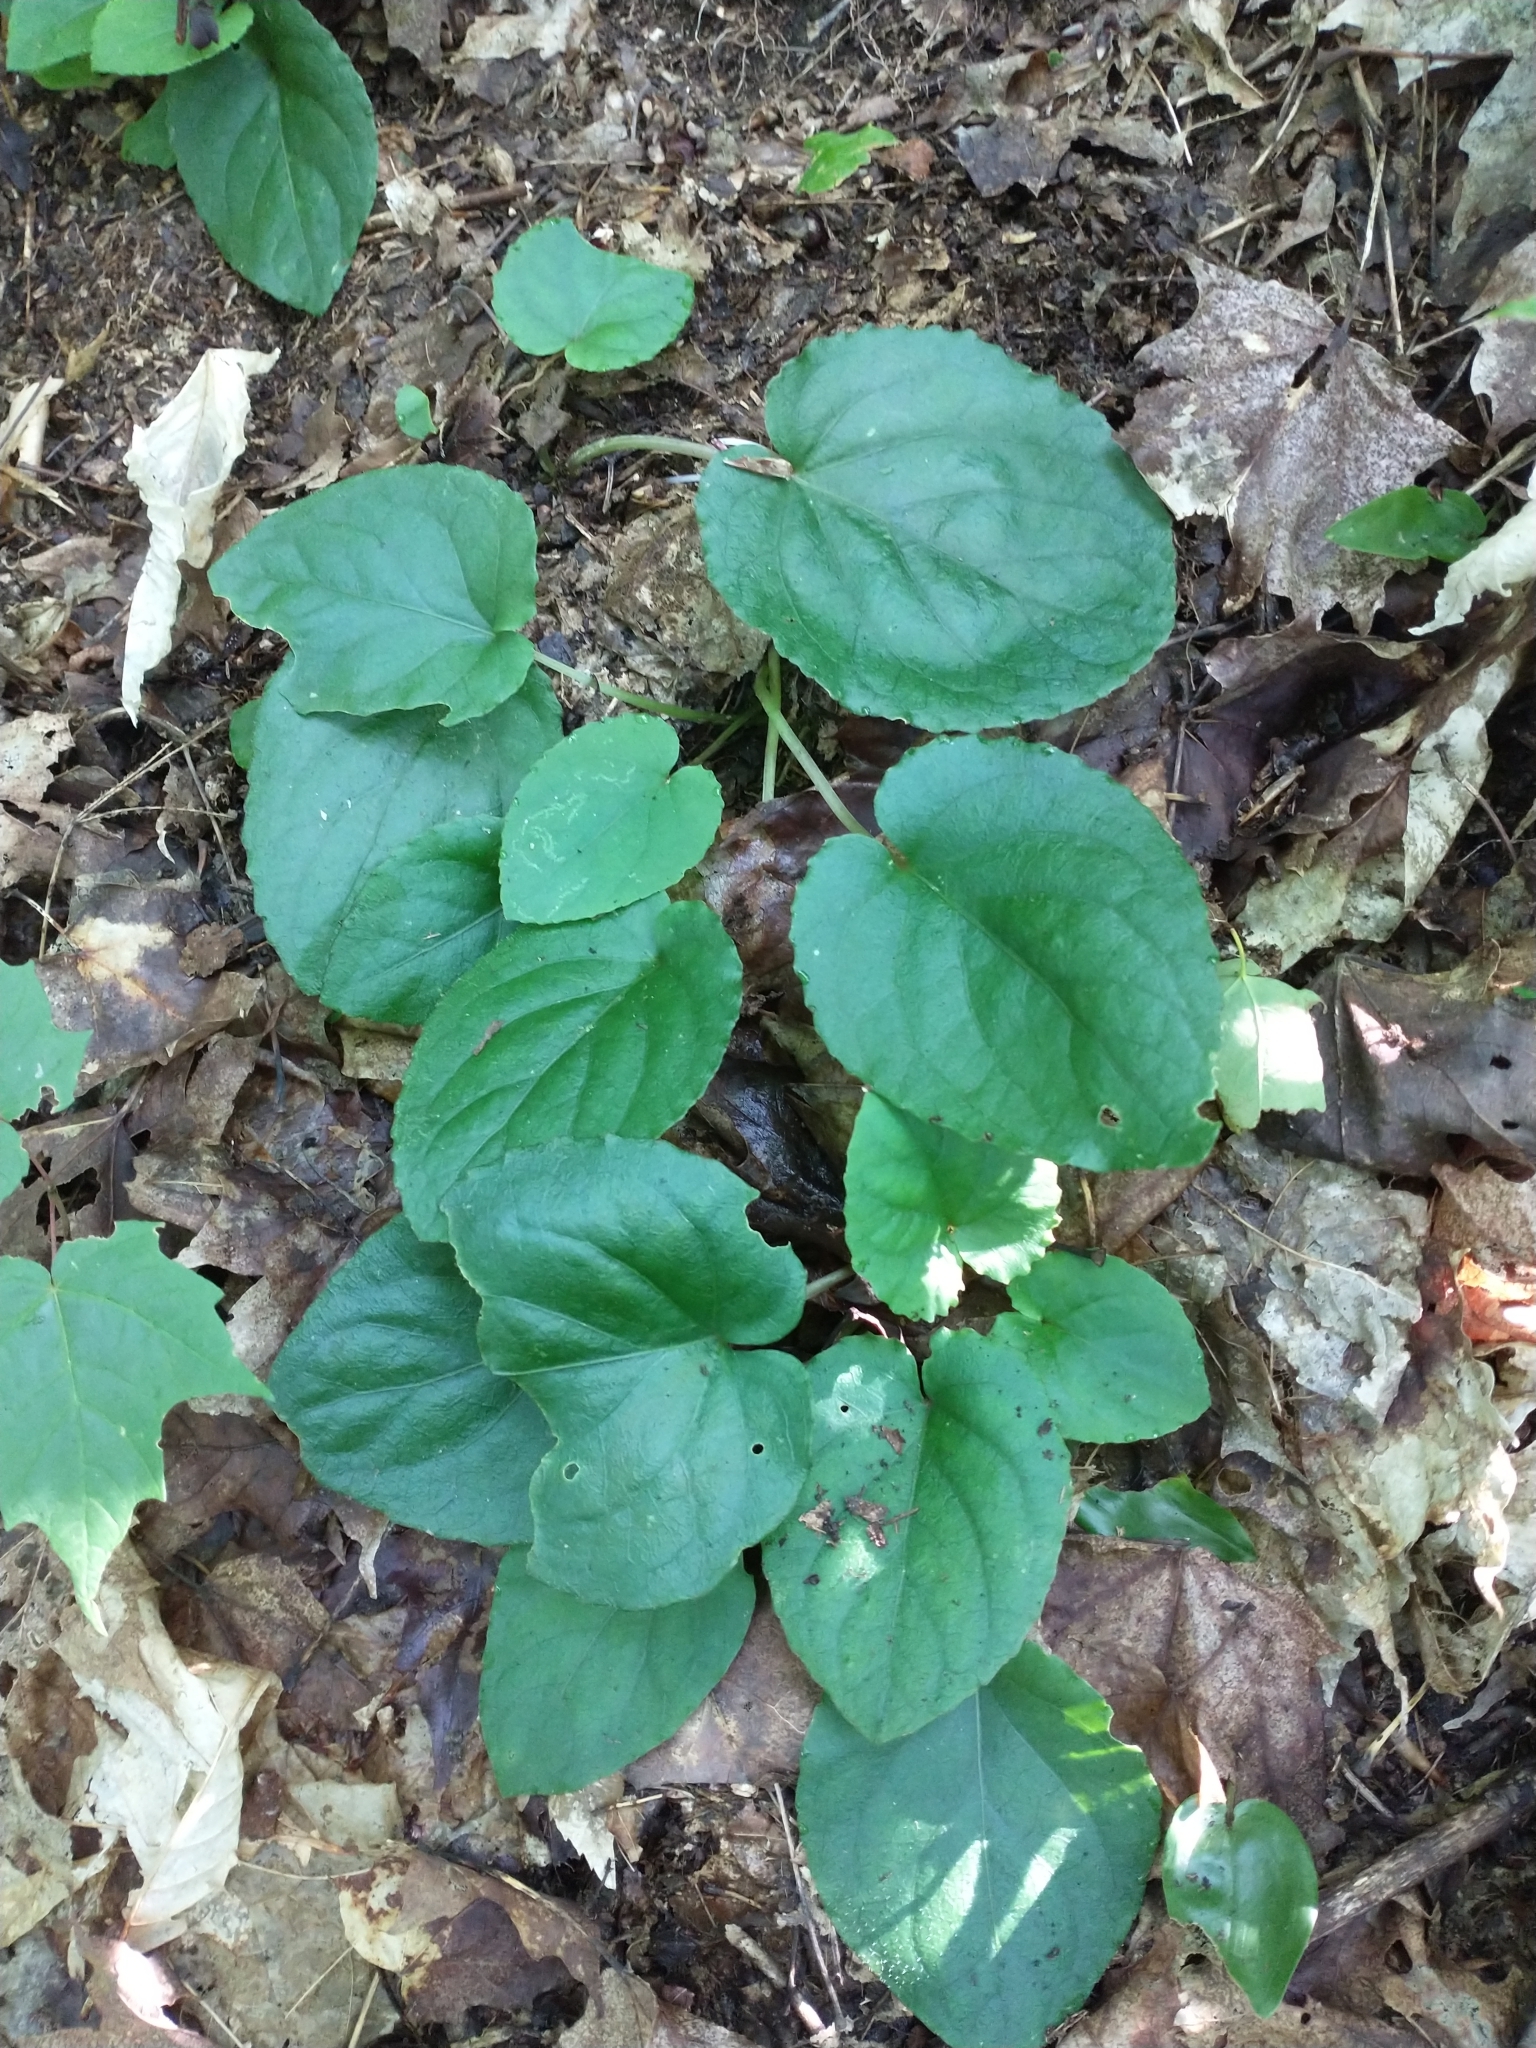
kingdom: Plantae
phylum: Tracheophyta
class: Magnoliopsida
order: Malpighiales
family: Violaceae
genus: Viola
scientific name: Viola rotundifolia
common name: Early yellow violet
